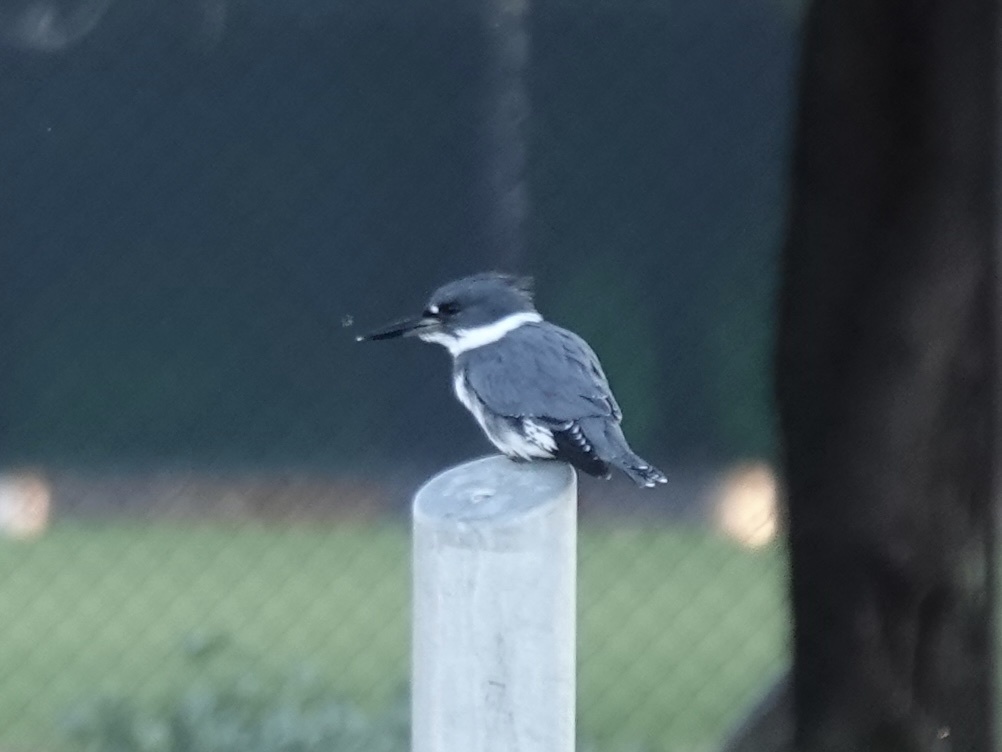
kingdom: Animalia
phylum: Chordata
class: Aves
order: Coraciiformes
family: Alcedinidae
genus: Megaceryle
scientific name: Megaceryle alcyon
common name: Belted kingfisher
